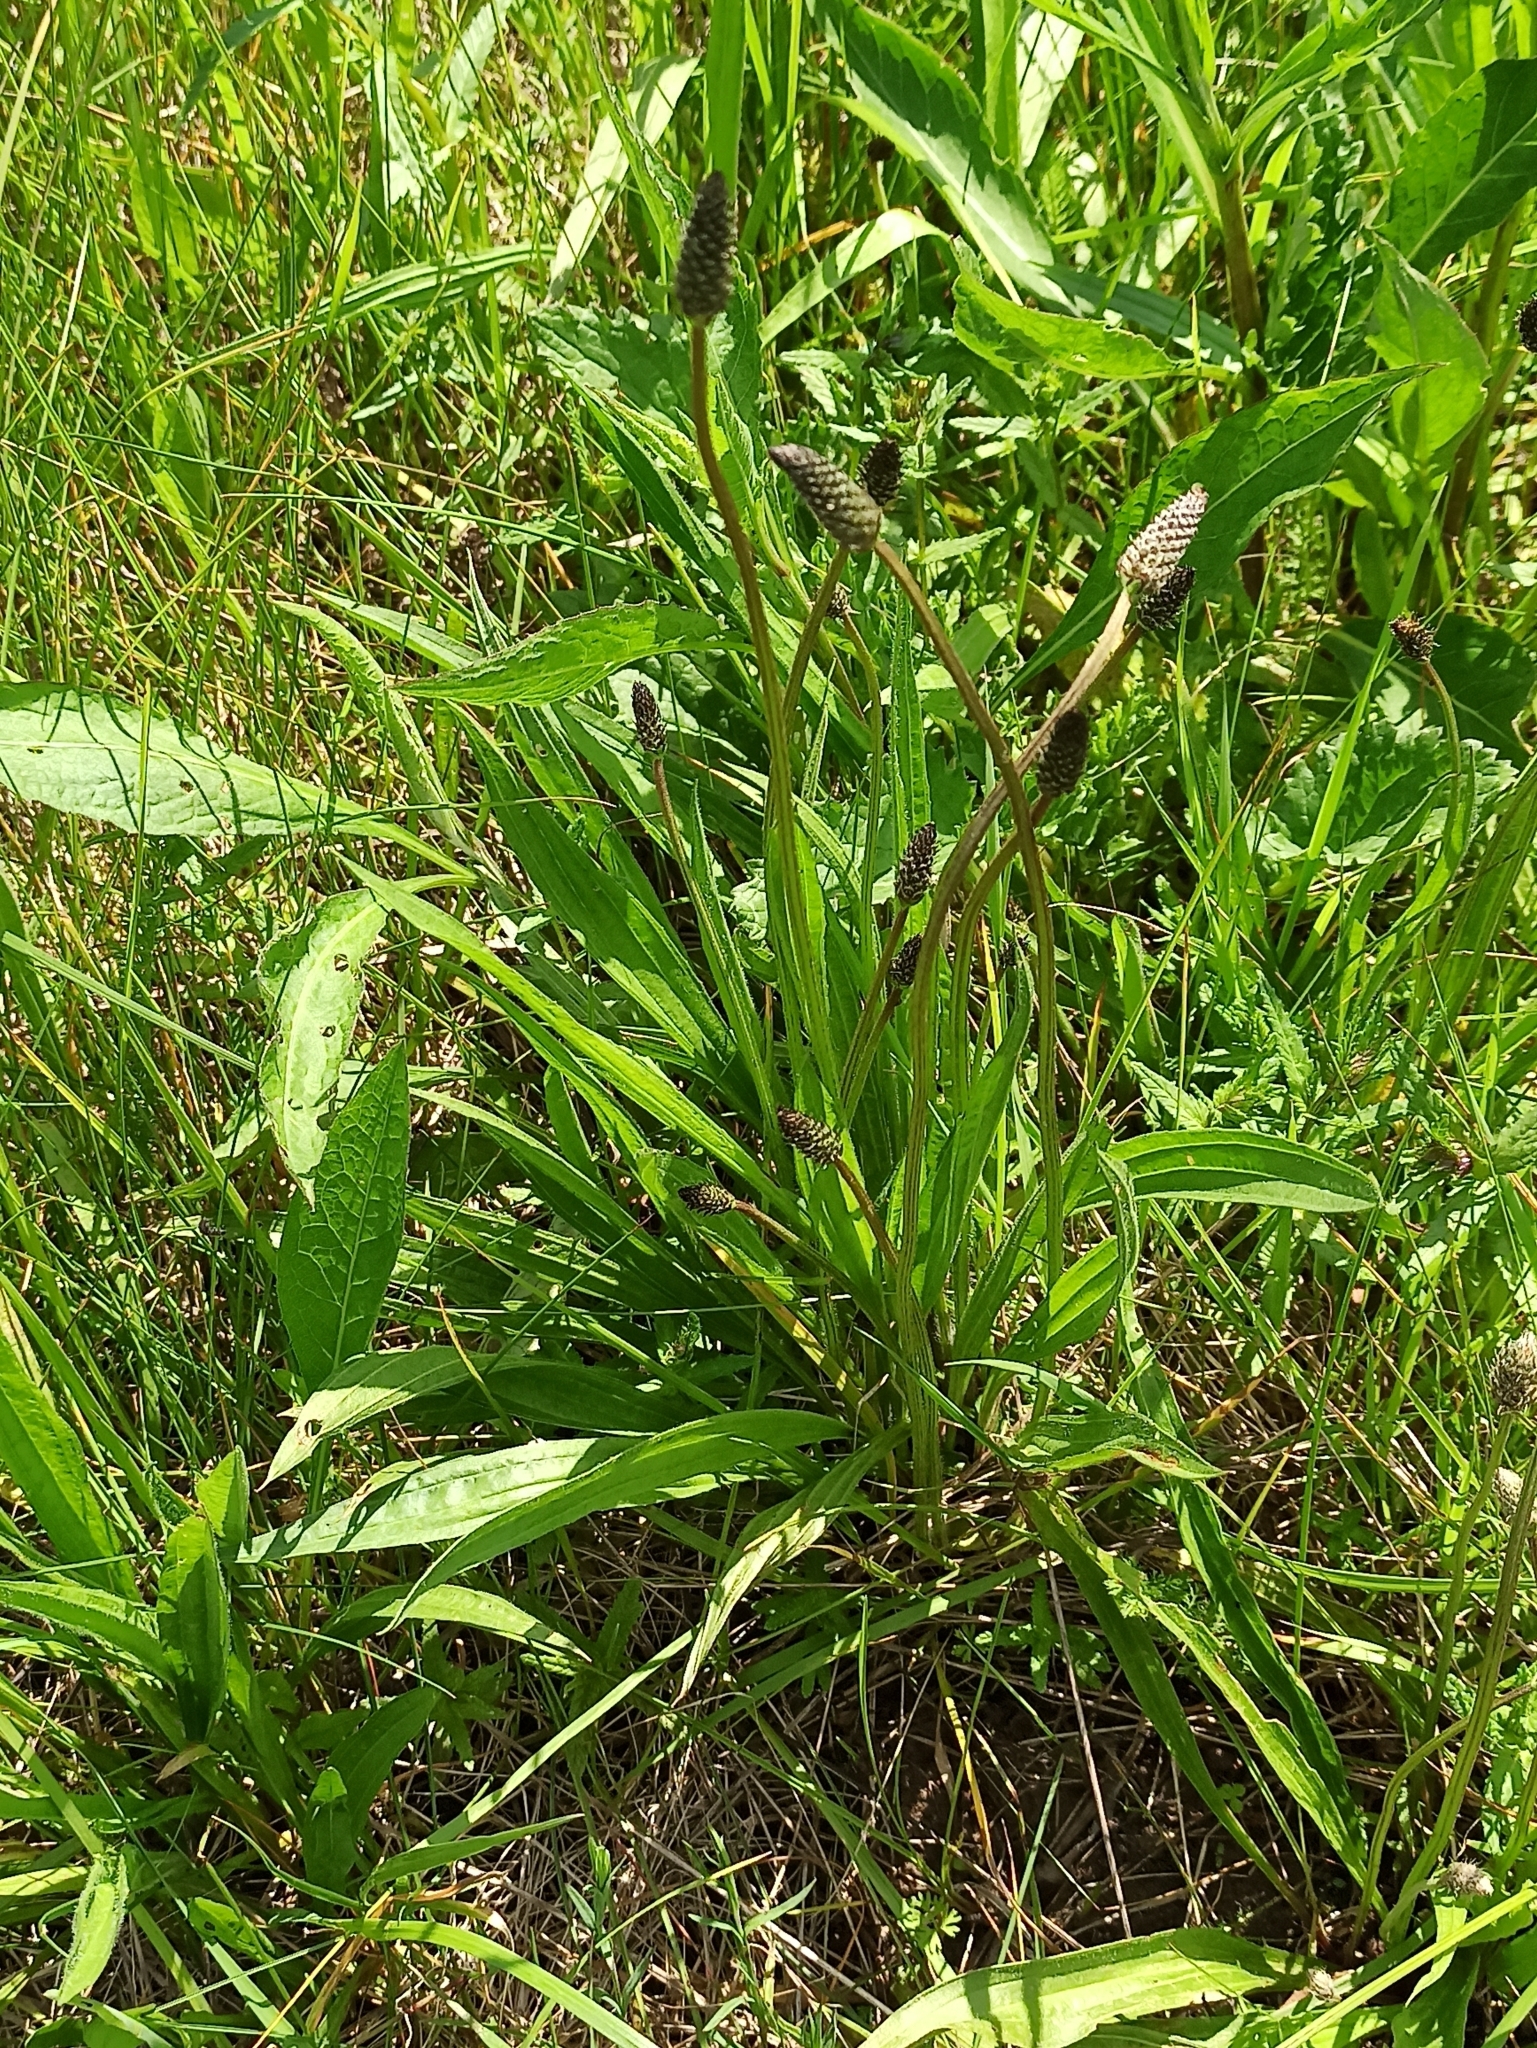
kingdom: Plantae
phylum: Tracheophyta
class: Magnoliopsida
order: Lamiales
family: Plantaginaceae
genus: Plantago
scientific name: Plantago lanceolata
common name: Ribwort plantain
